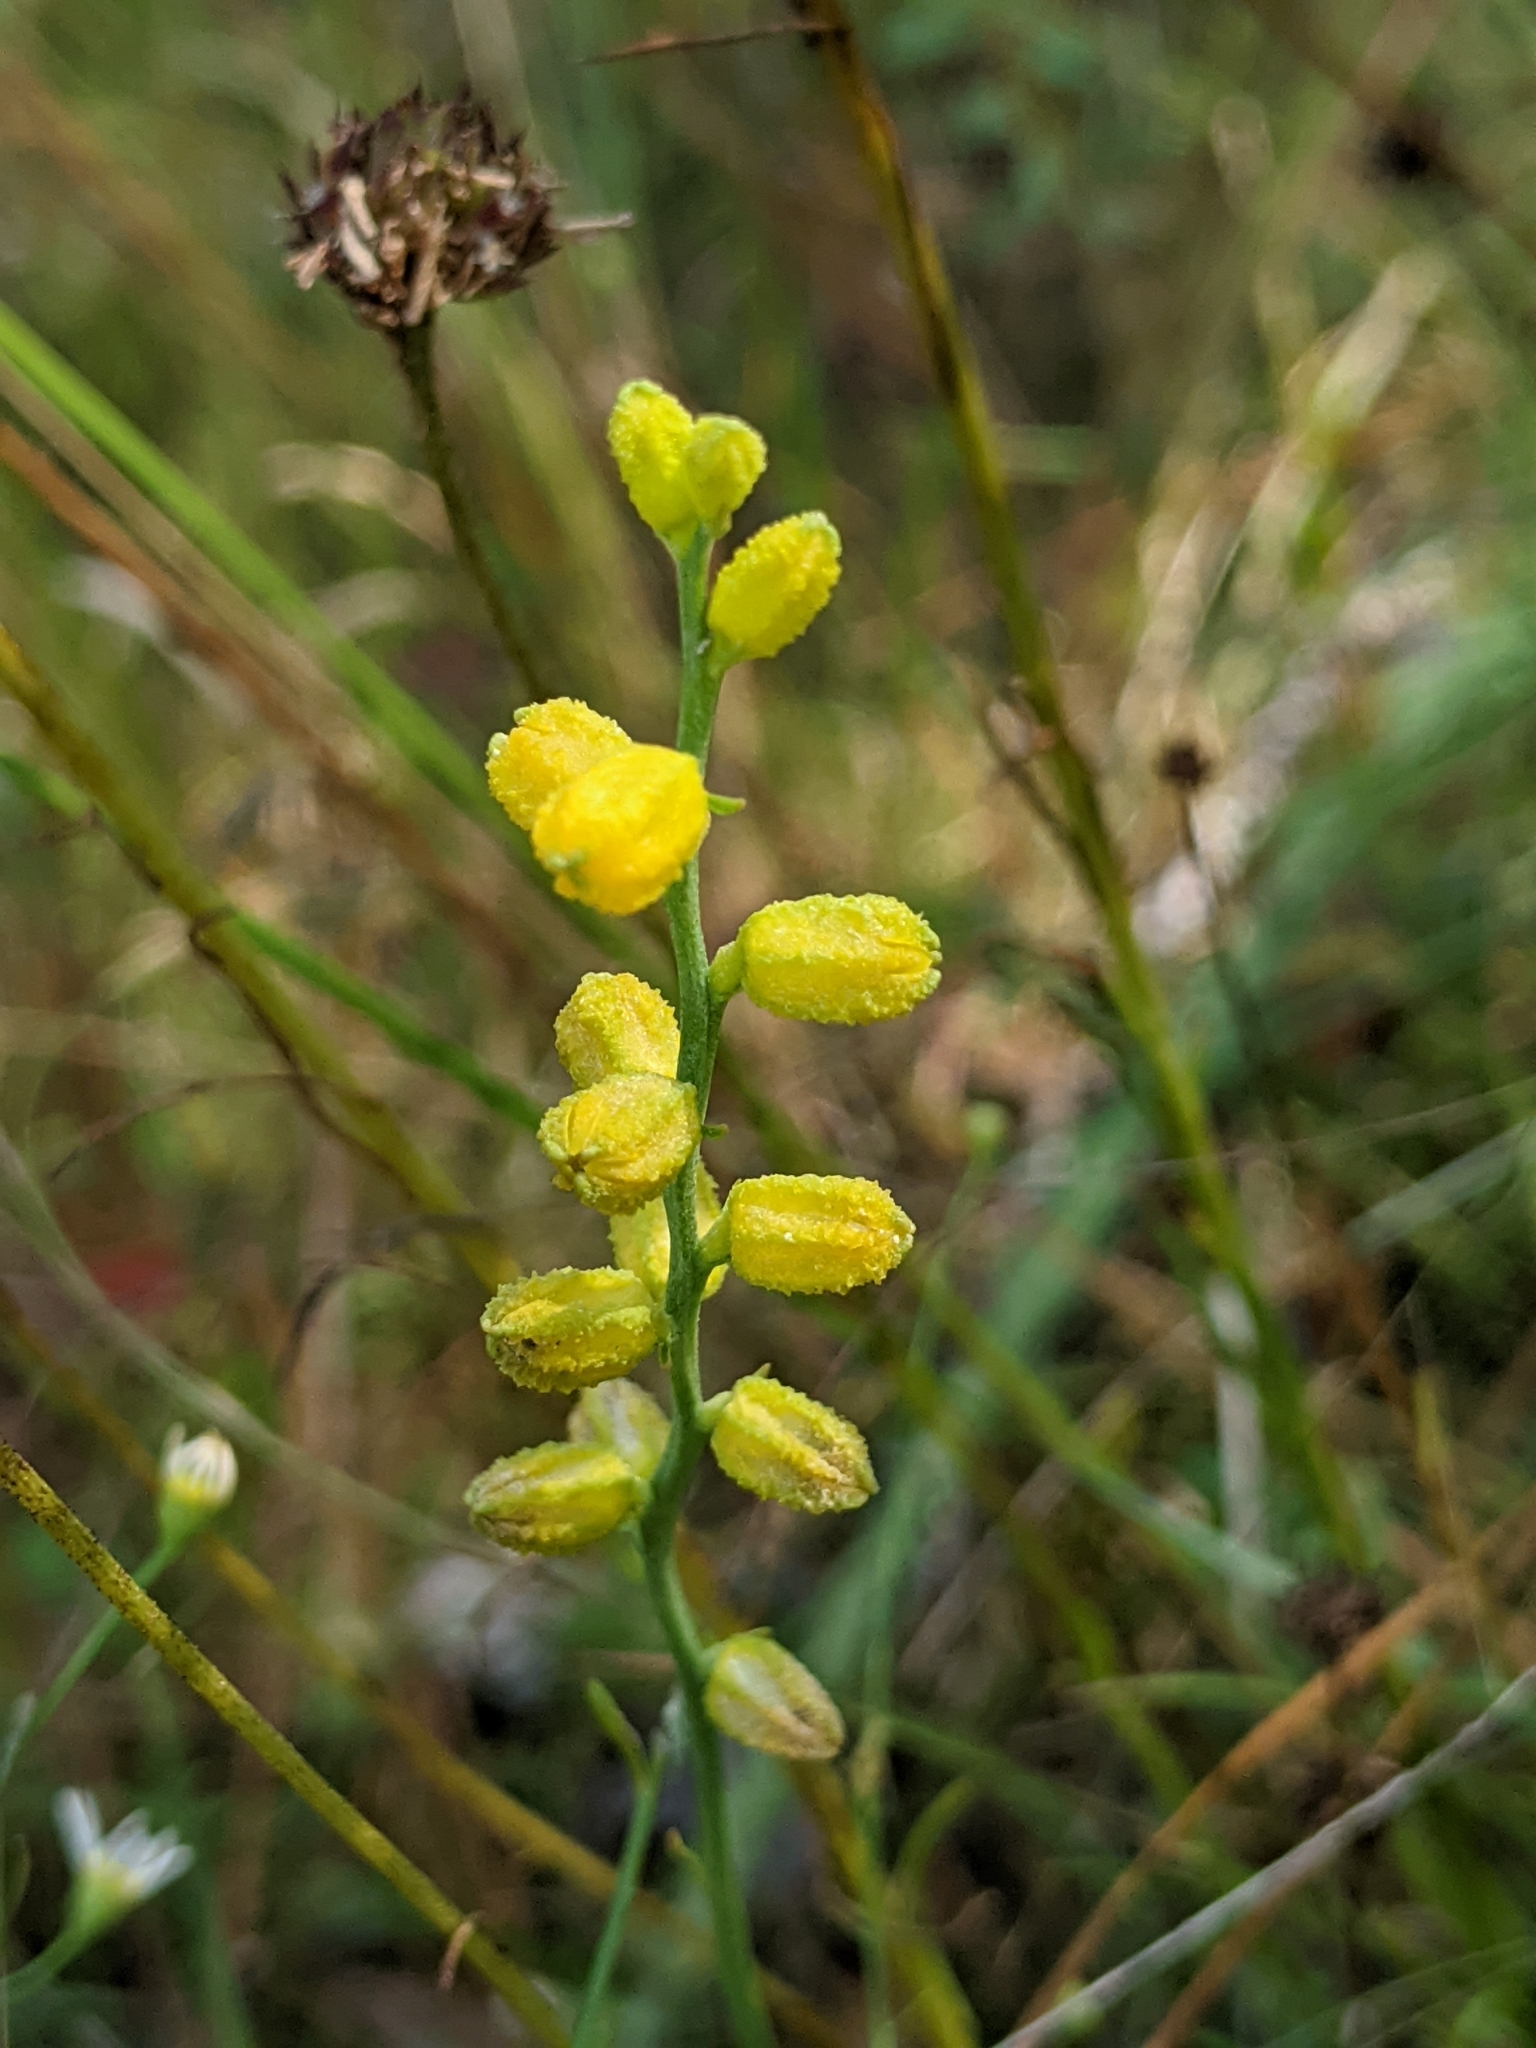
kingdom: Plantae
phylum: Tracheophyta
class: Liliopsida
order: Dioscoreales
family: Nartheciaceae
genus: Aletris
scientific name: Aletris aurea
